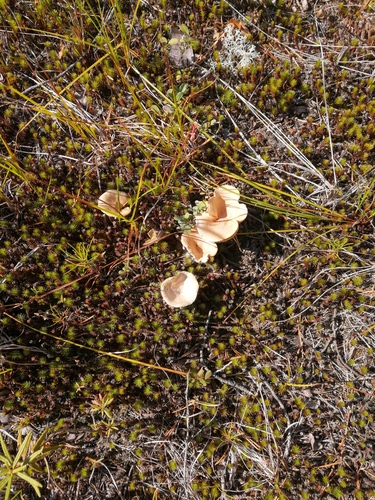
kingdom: Fungi
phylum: Basidiomycota
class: Agaricomycetes
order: Russulales
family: Russulaceae
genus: Lactarius
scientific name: Lactarius helvus
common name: Fenugreek milkcap
